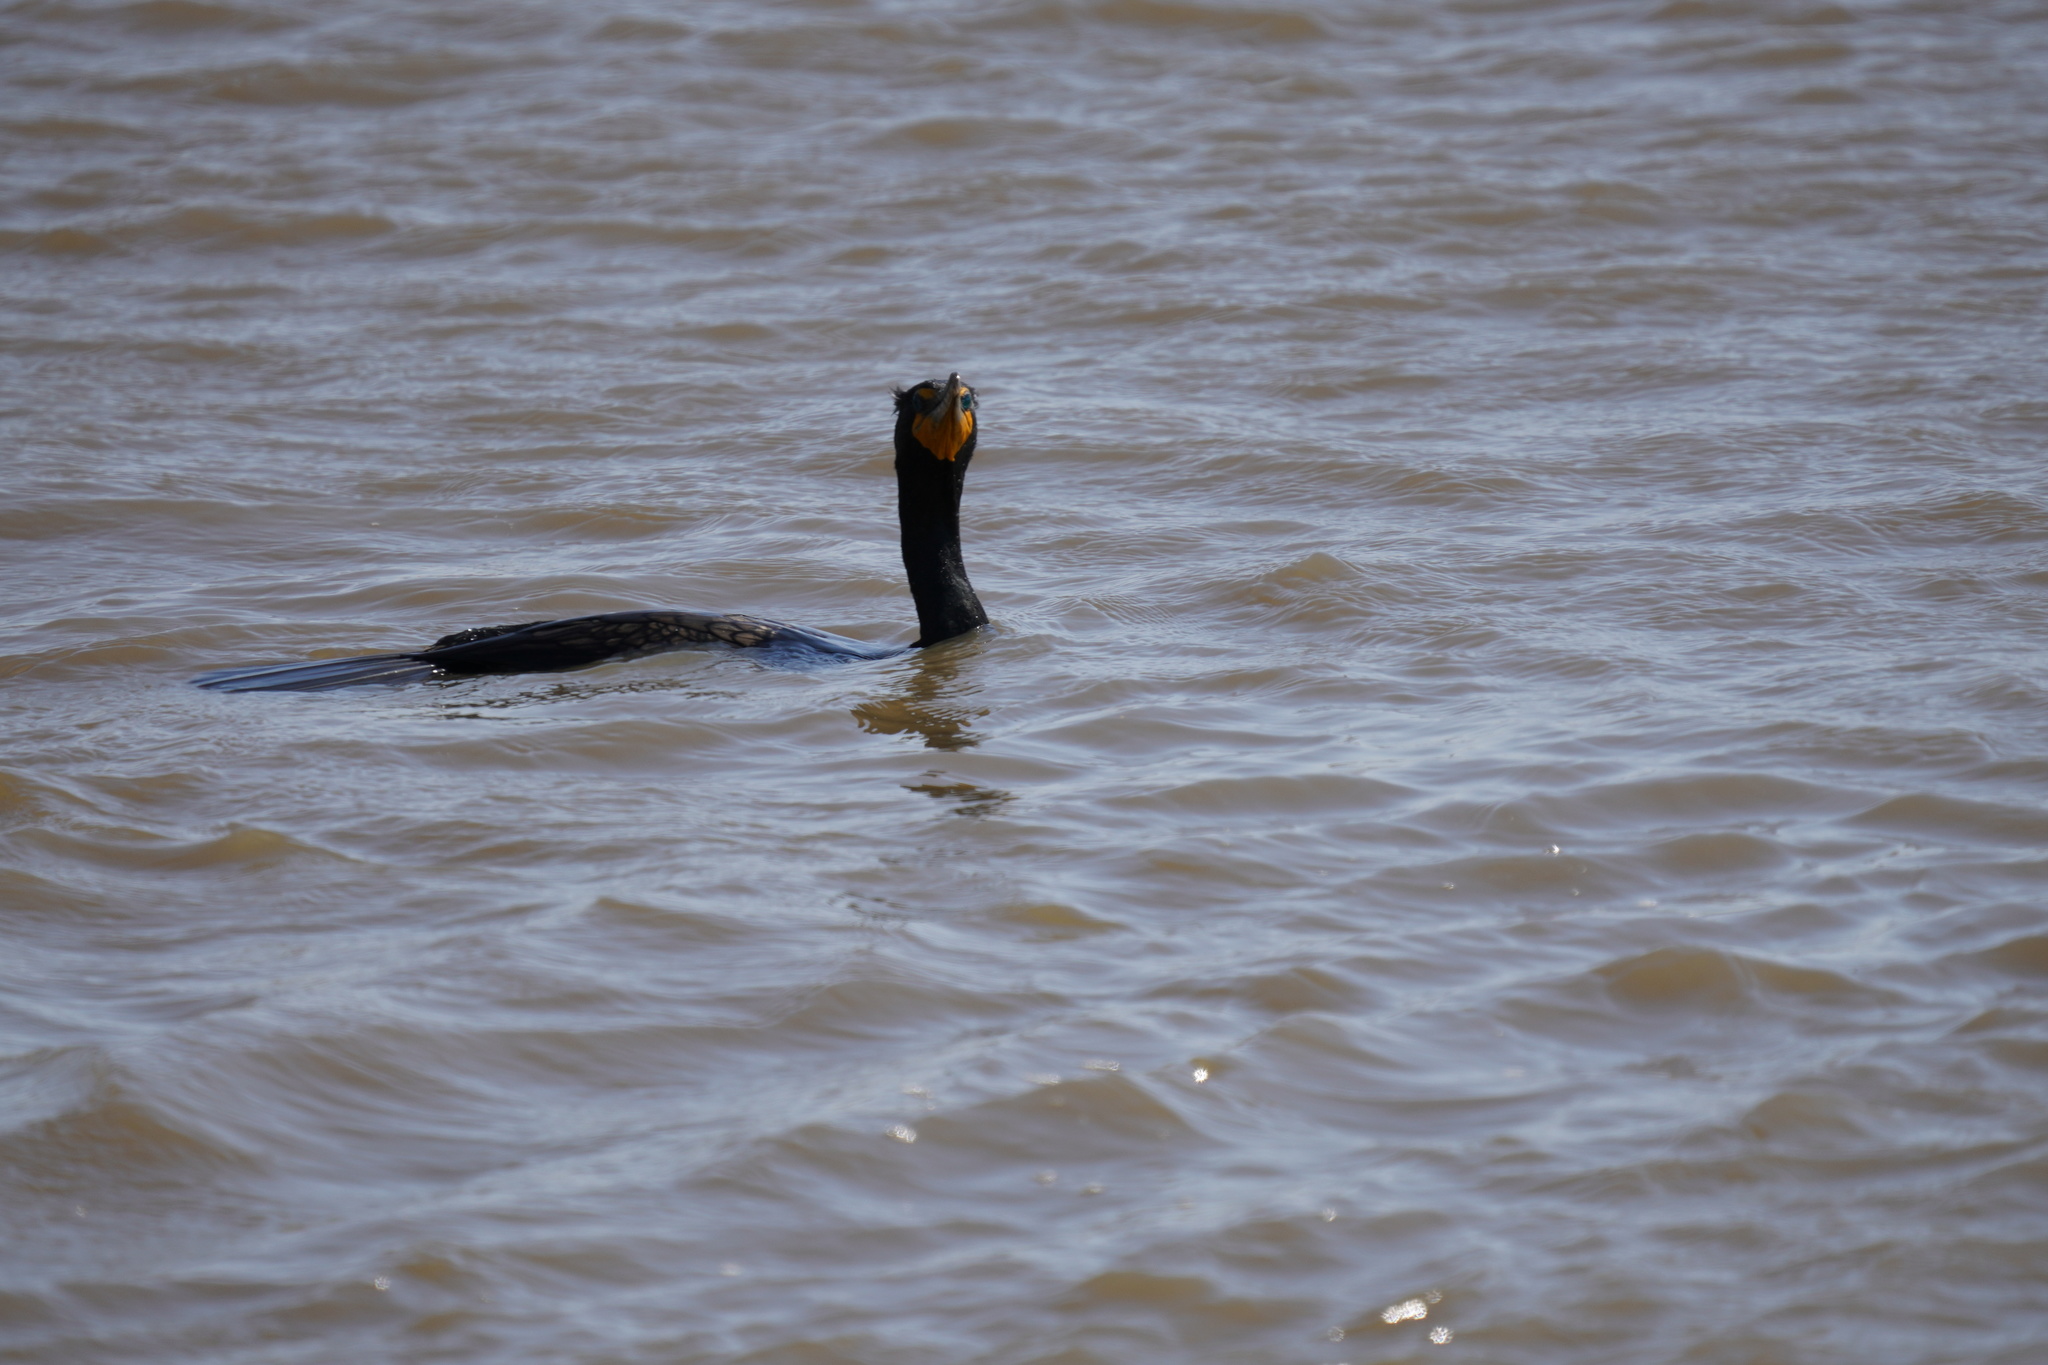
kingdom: Animalia
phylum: Chordata
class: Aves
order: Suliformes
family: Phalacrocoracidae
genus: Phalacrocorax
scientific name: Phalacrocorax auritus
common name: Double-crested cormorant
